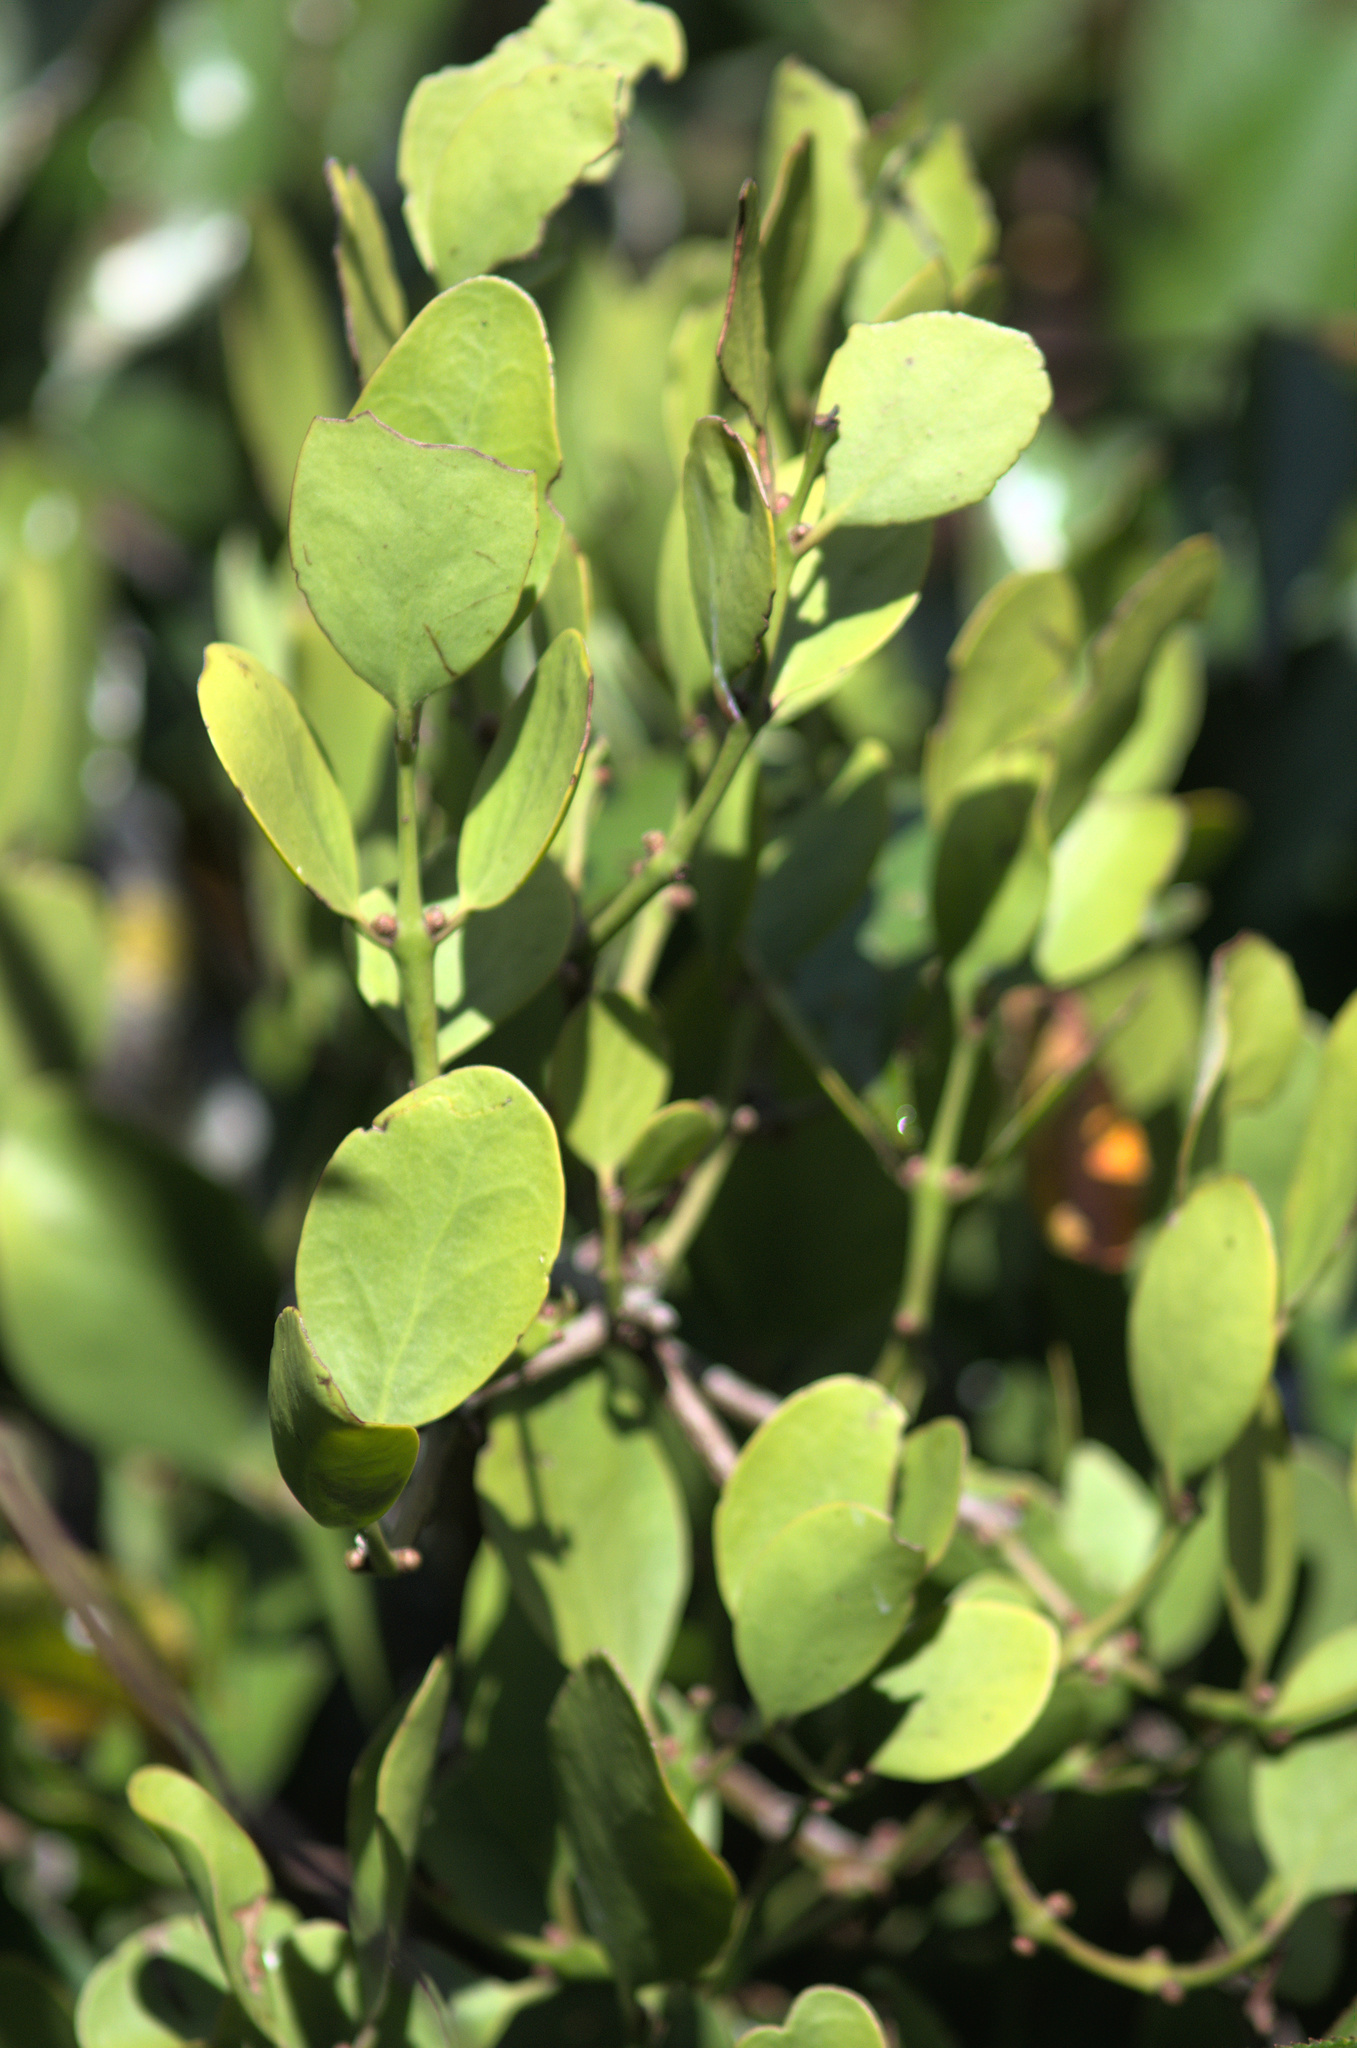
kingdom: Plantae
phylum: Tracheophyta
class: Magnoliopsida
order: Santalales
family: Loranthaceae
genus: Ileostylus
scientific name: Ileostylus micranthus
